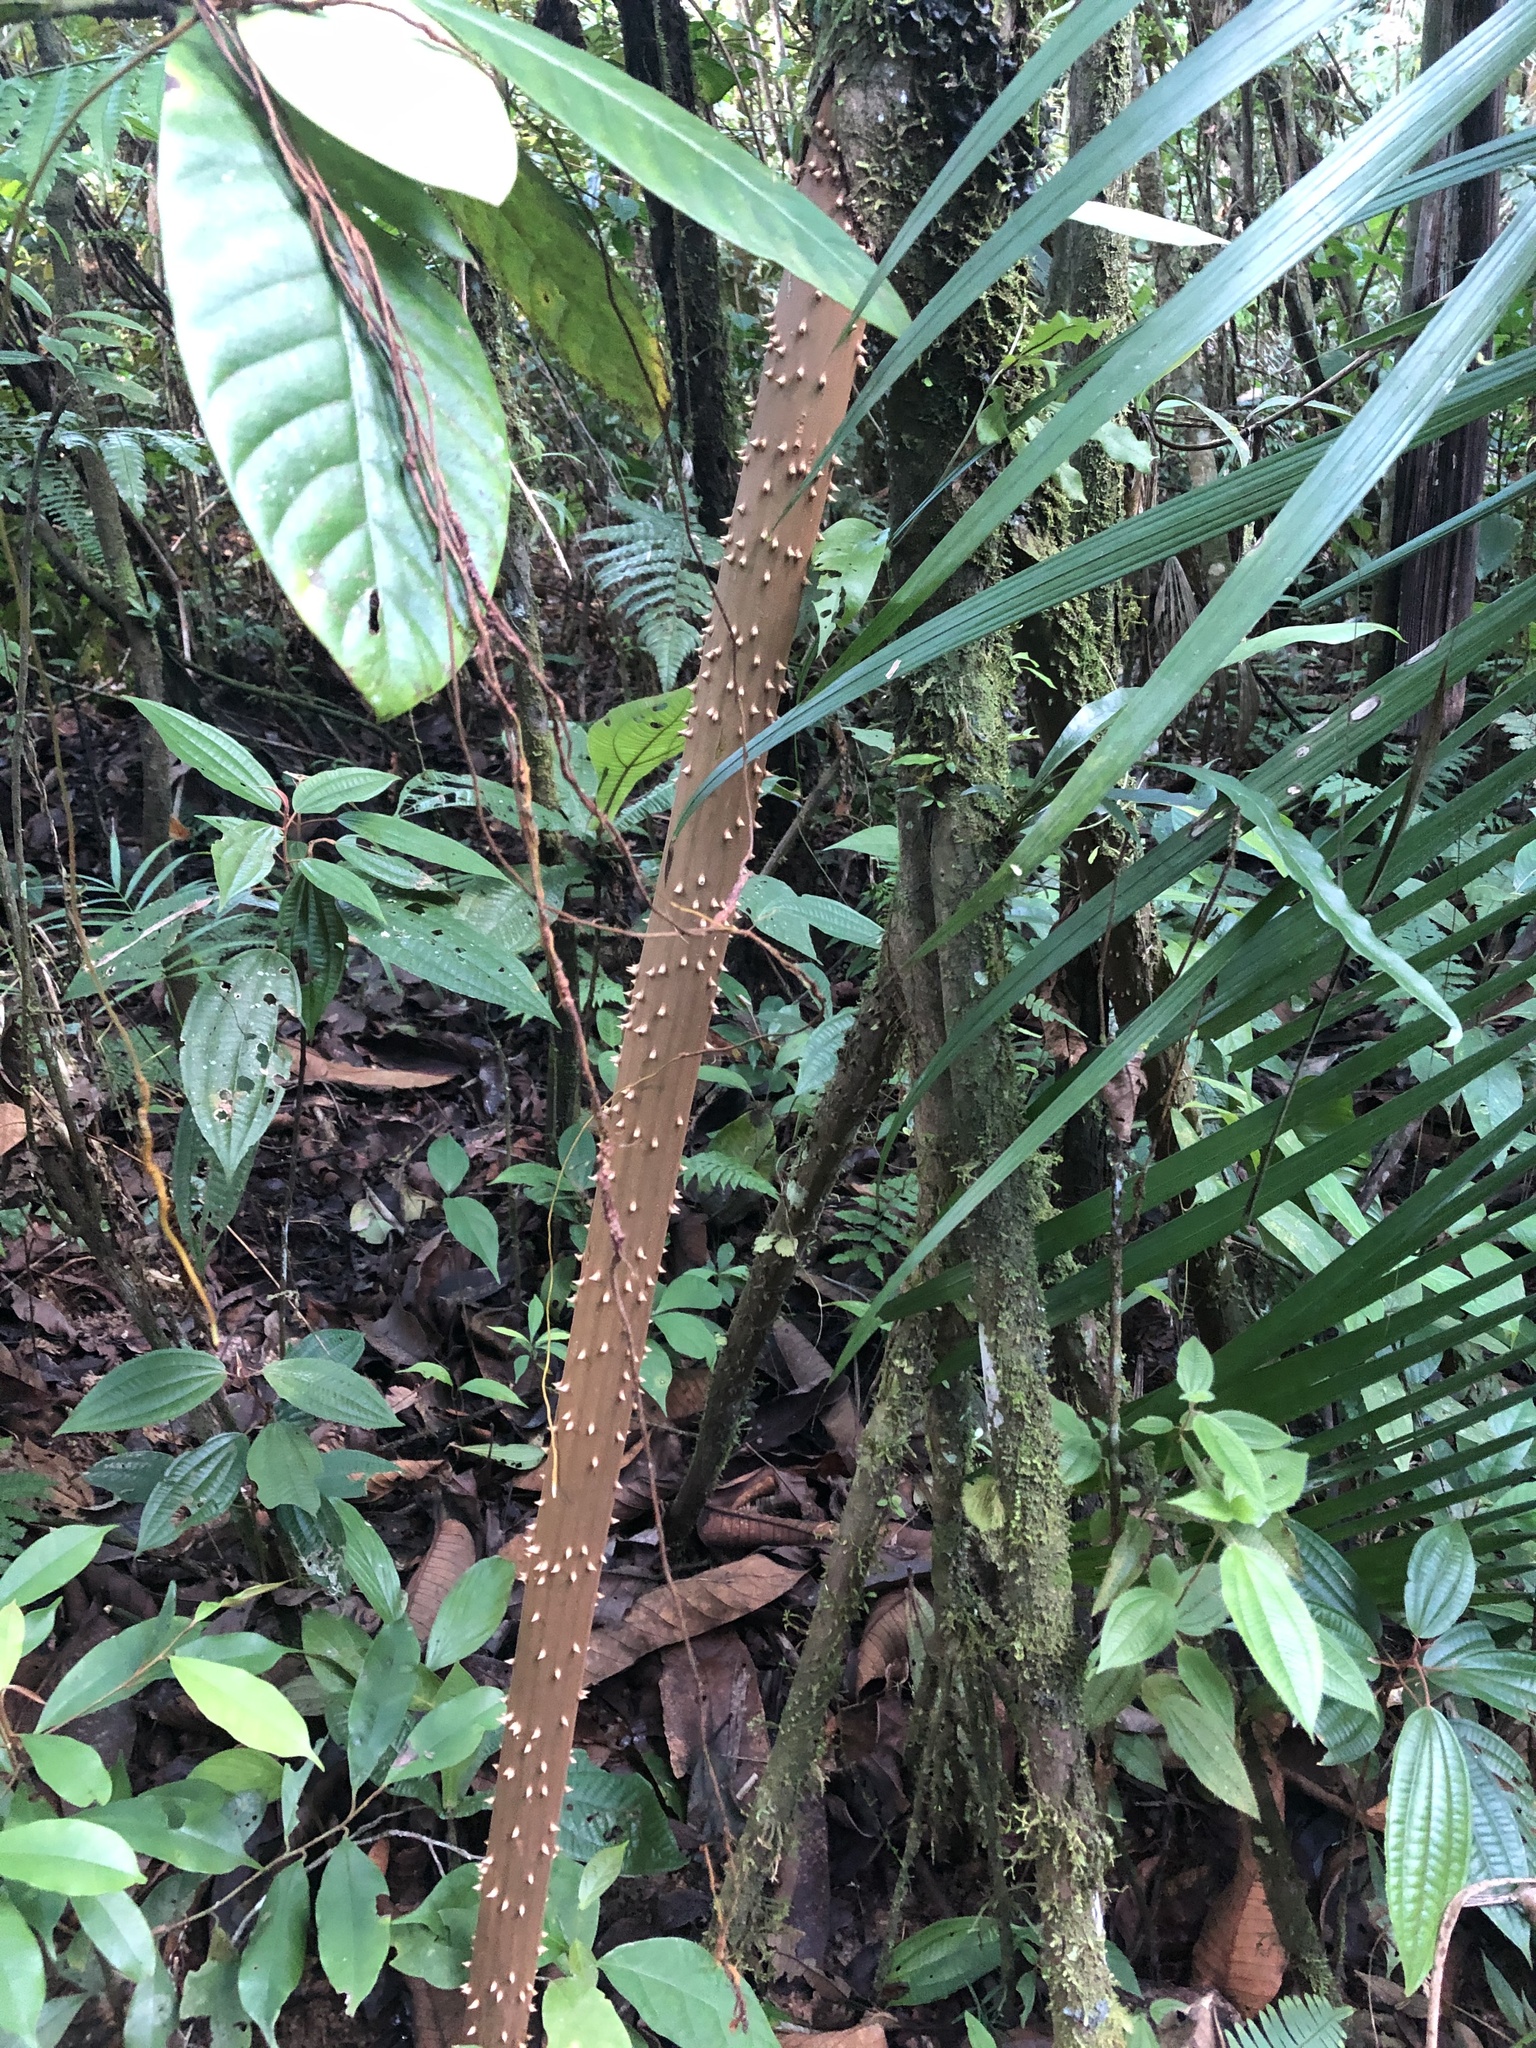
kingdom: Plantae
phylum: Tracheophyta
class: Liliopsida
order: Arecales
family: Arecaceae
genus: Socratea
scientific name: Socratea exorrhiza
